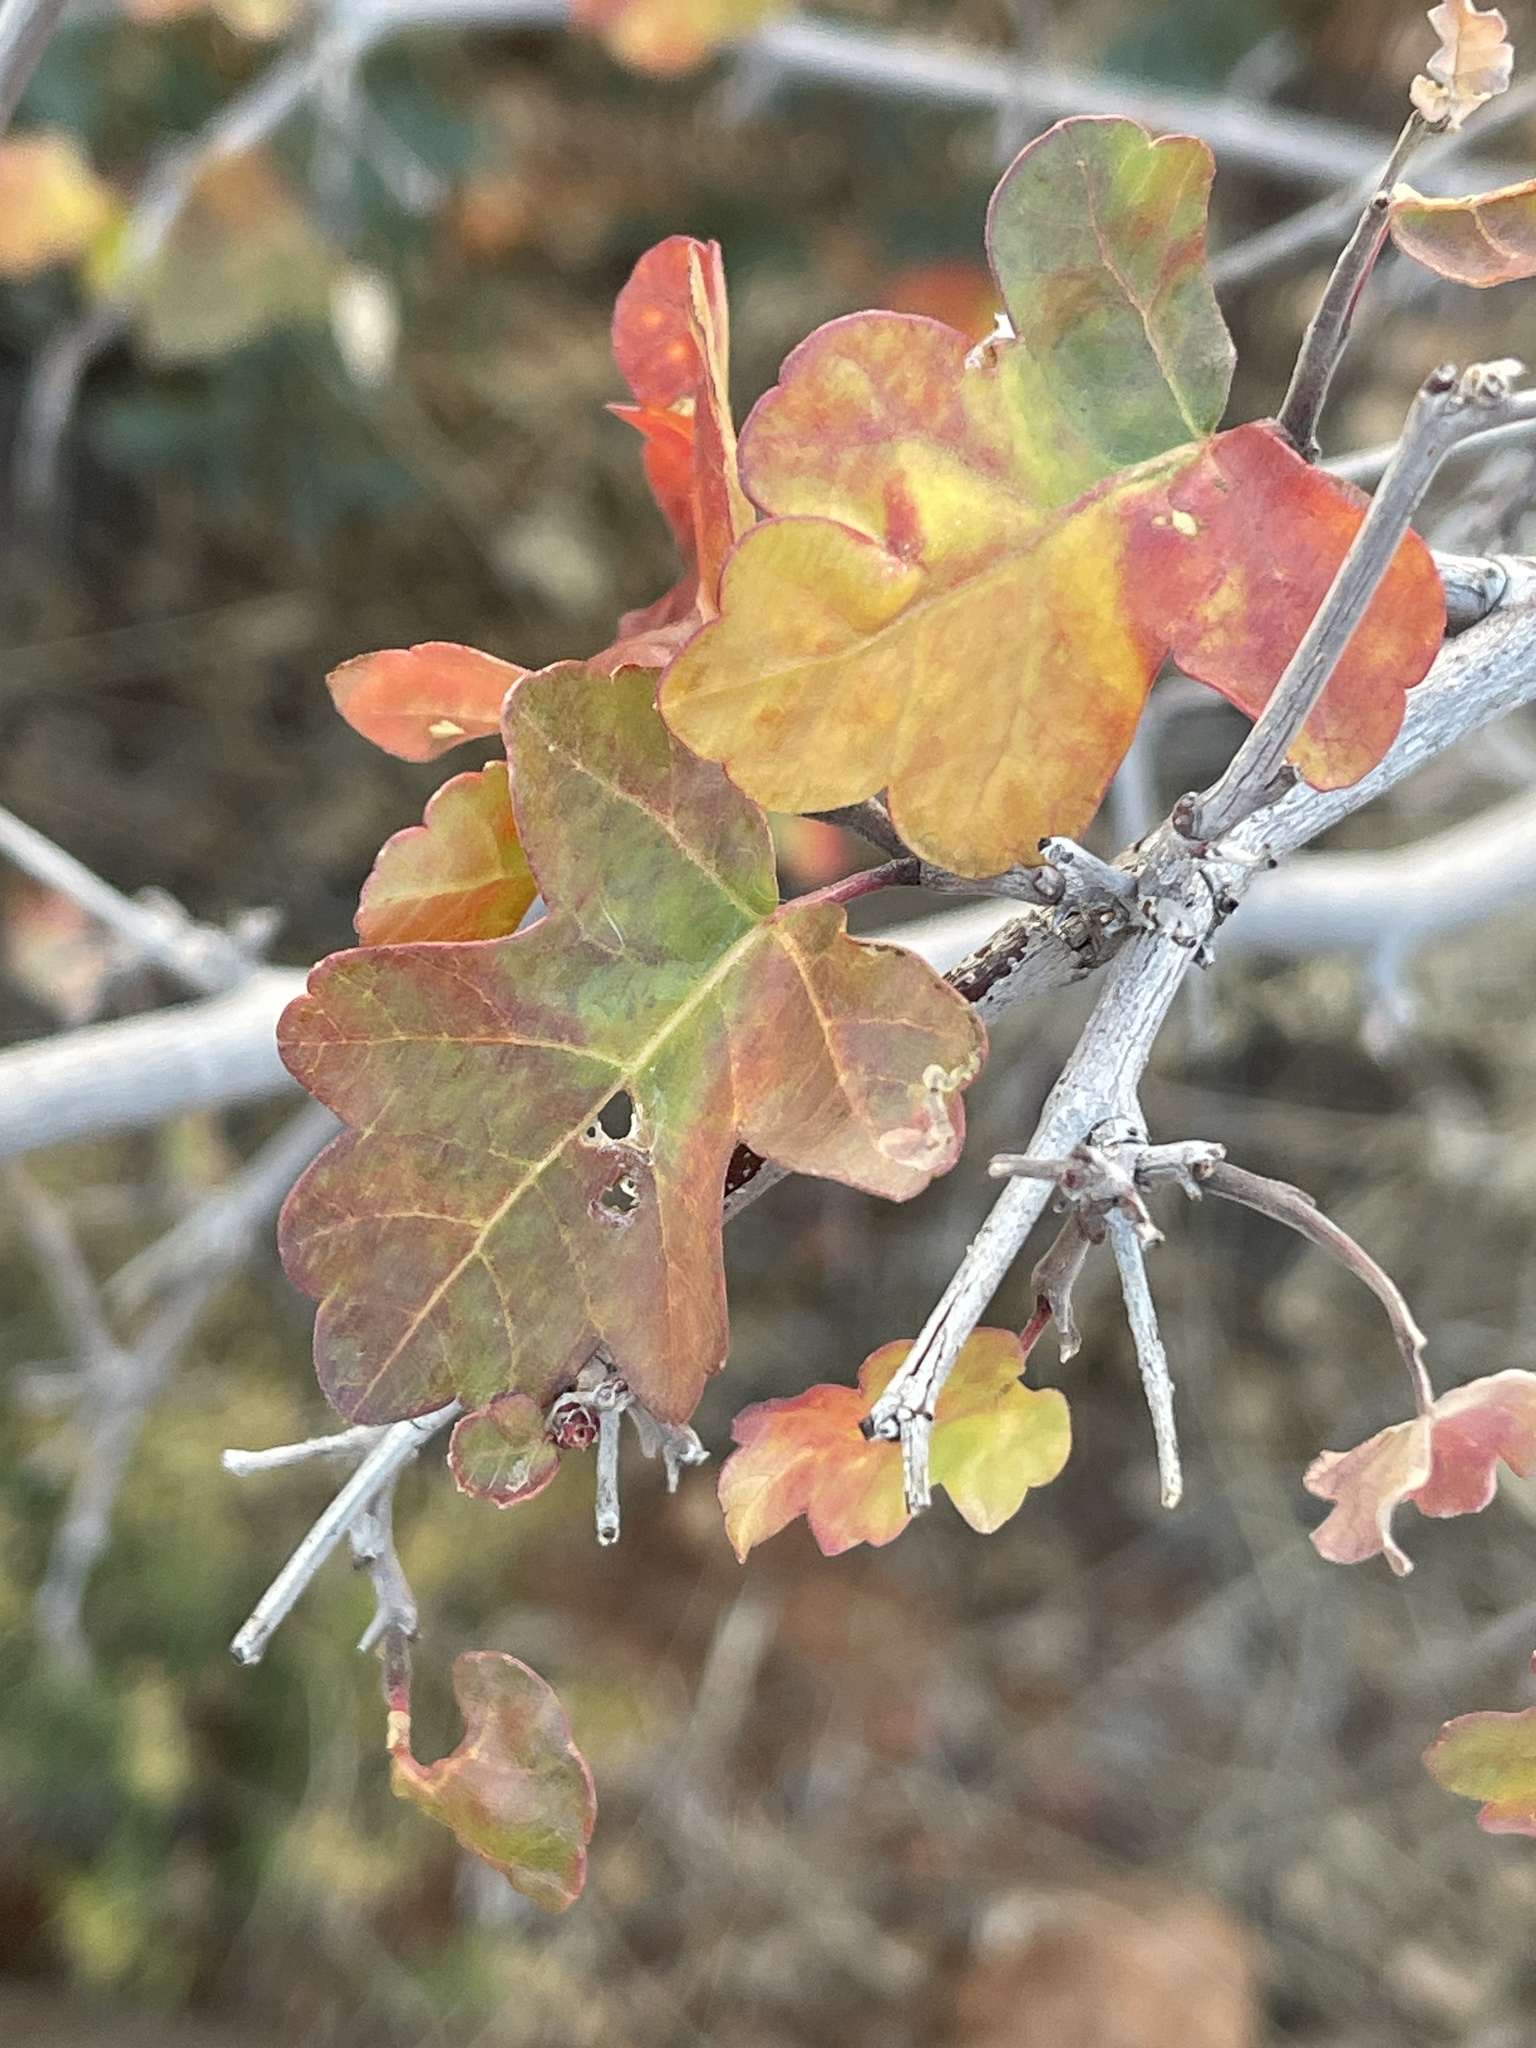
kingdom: Plantae
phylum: Tracheophyta
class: Magnoliopsida
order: Sapindales
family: Anacardiaceae
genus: Rhus
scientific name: Rhus aromatica
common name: Aromatic sumac
